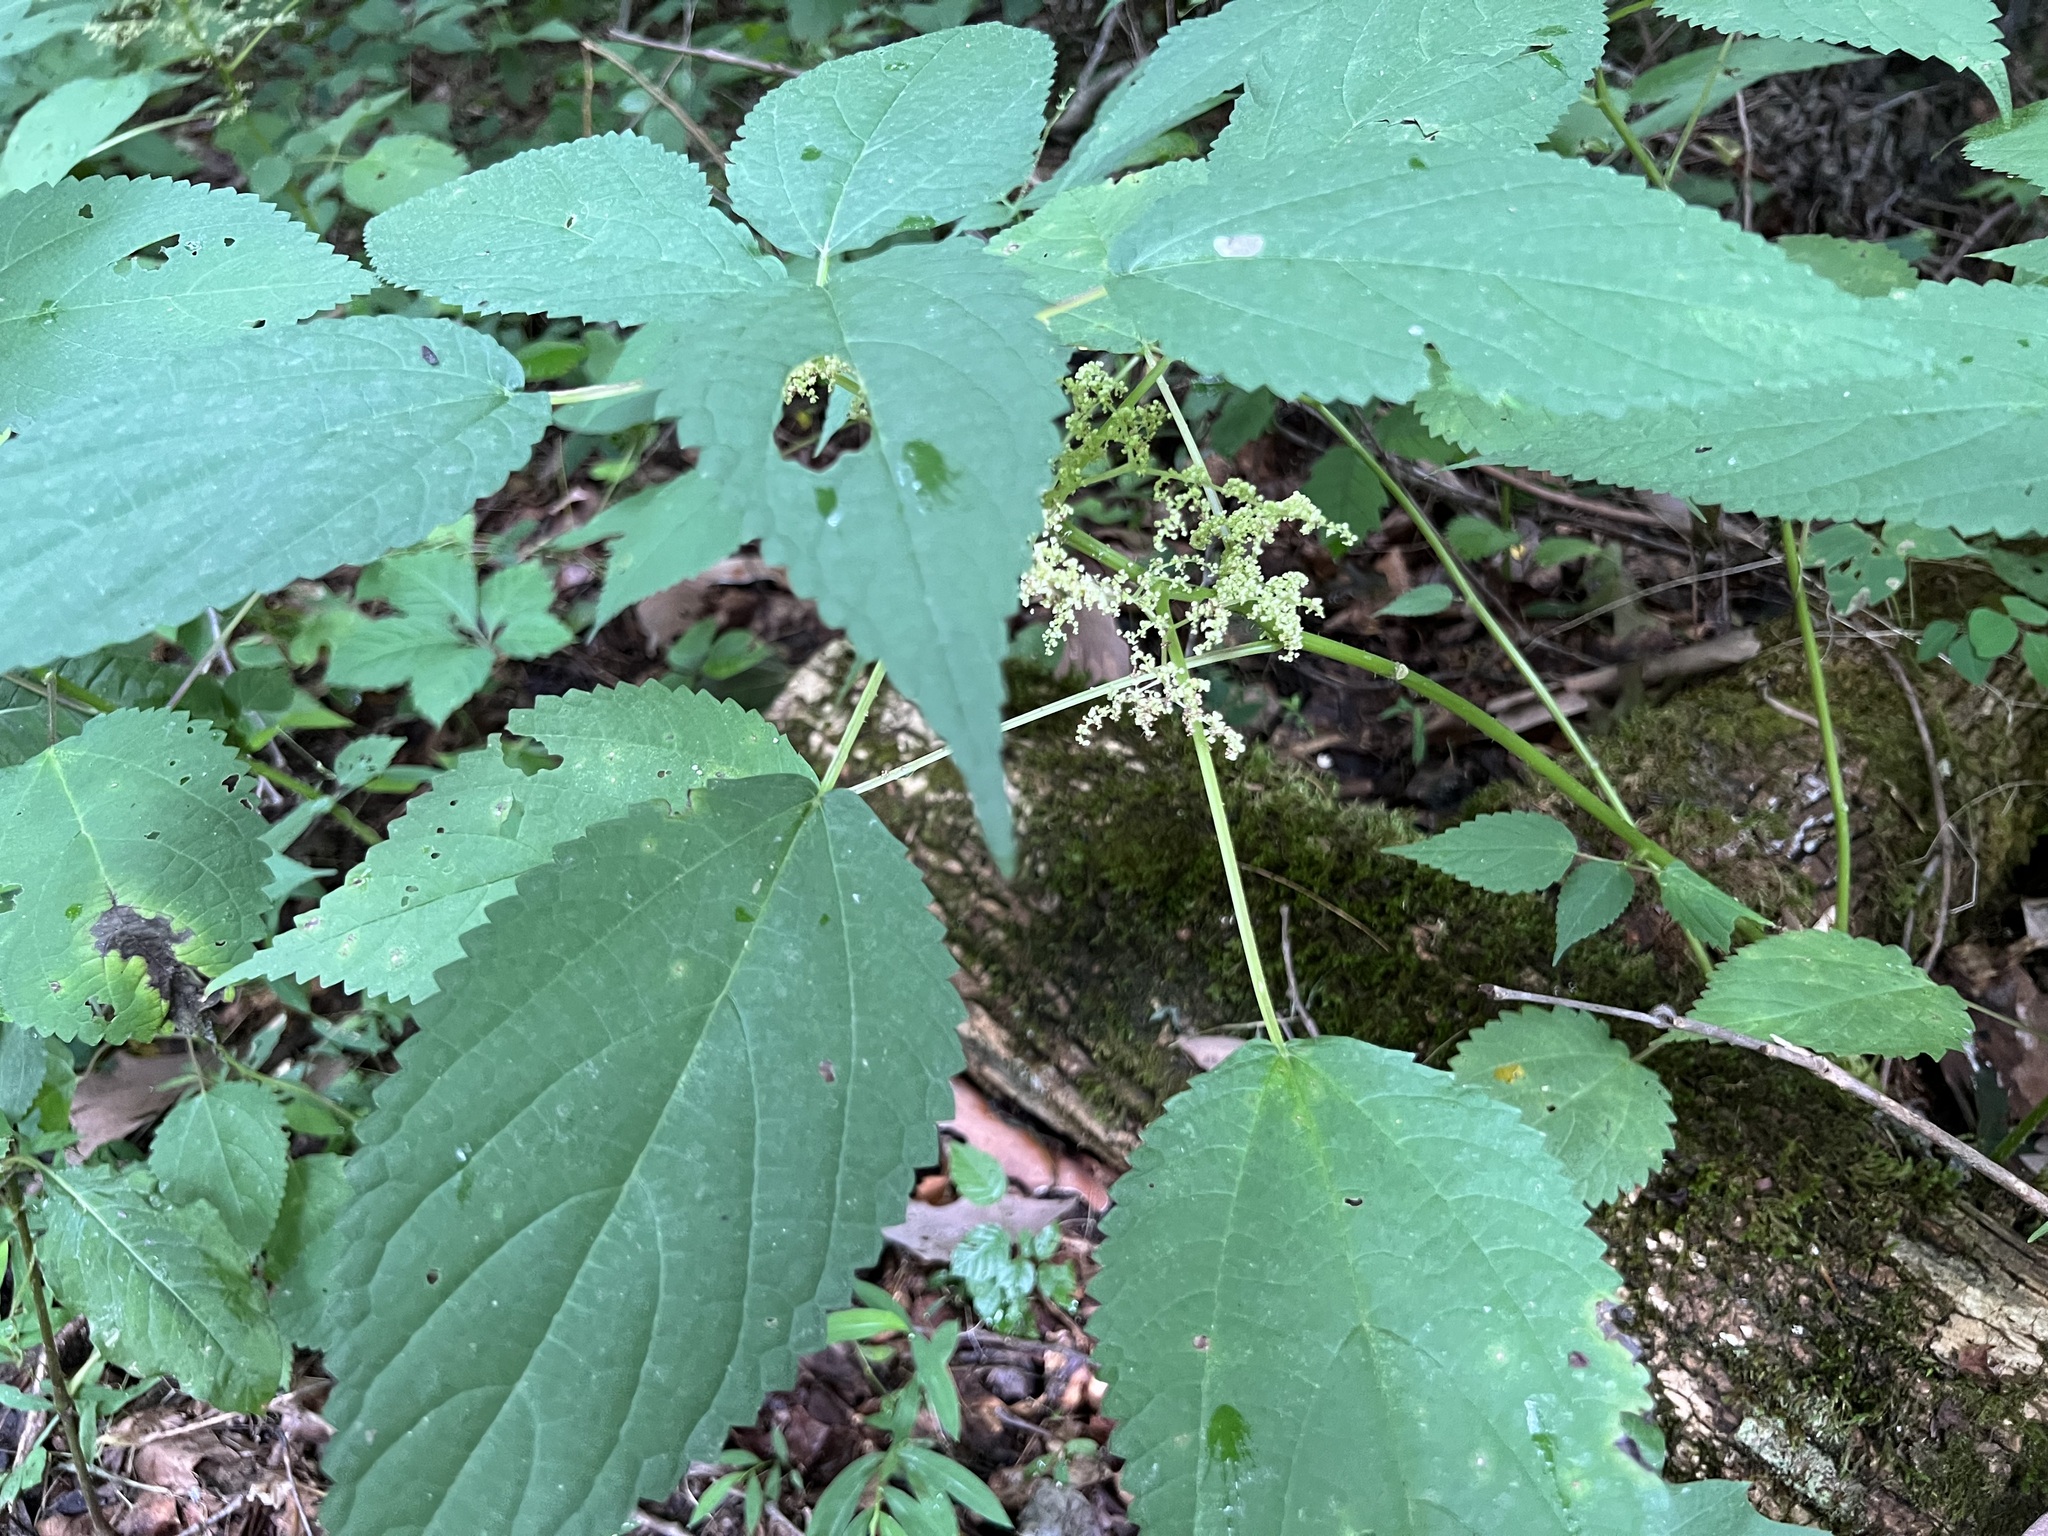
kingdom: Plantae
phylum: Tracheophyta
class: Magnoliopsida
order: Rosales
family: Urticaceae
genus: Laportea
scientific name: Laportea canadensis
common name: Canada nettle
